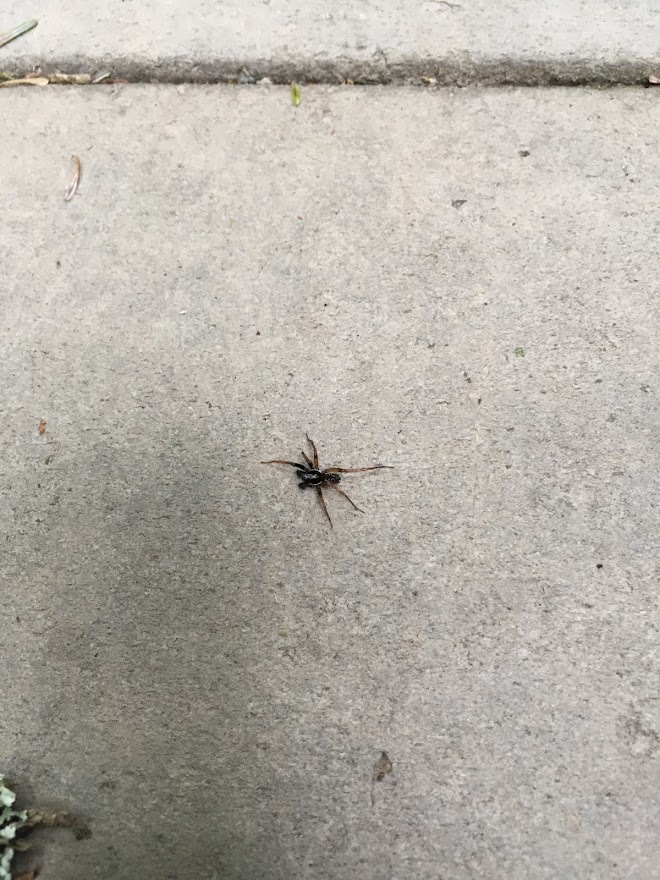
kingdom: Animalia
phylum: Arthropoda
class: Arachnida
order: Araneae
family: Lycosidae
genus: Pirata
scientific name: Pirata montanus
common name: Dark-legged pirate wolf spider
